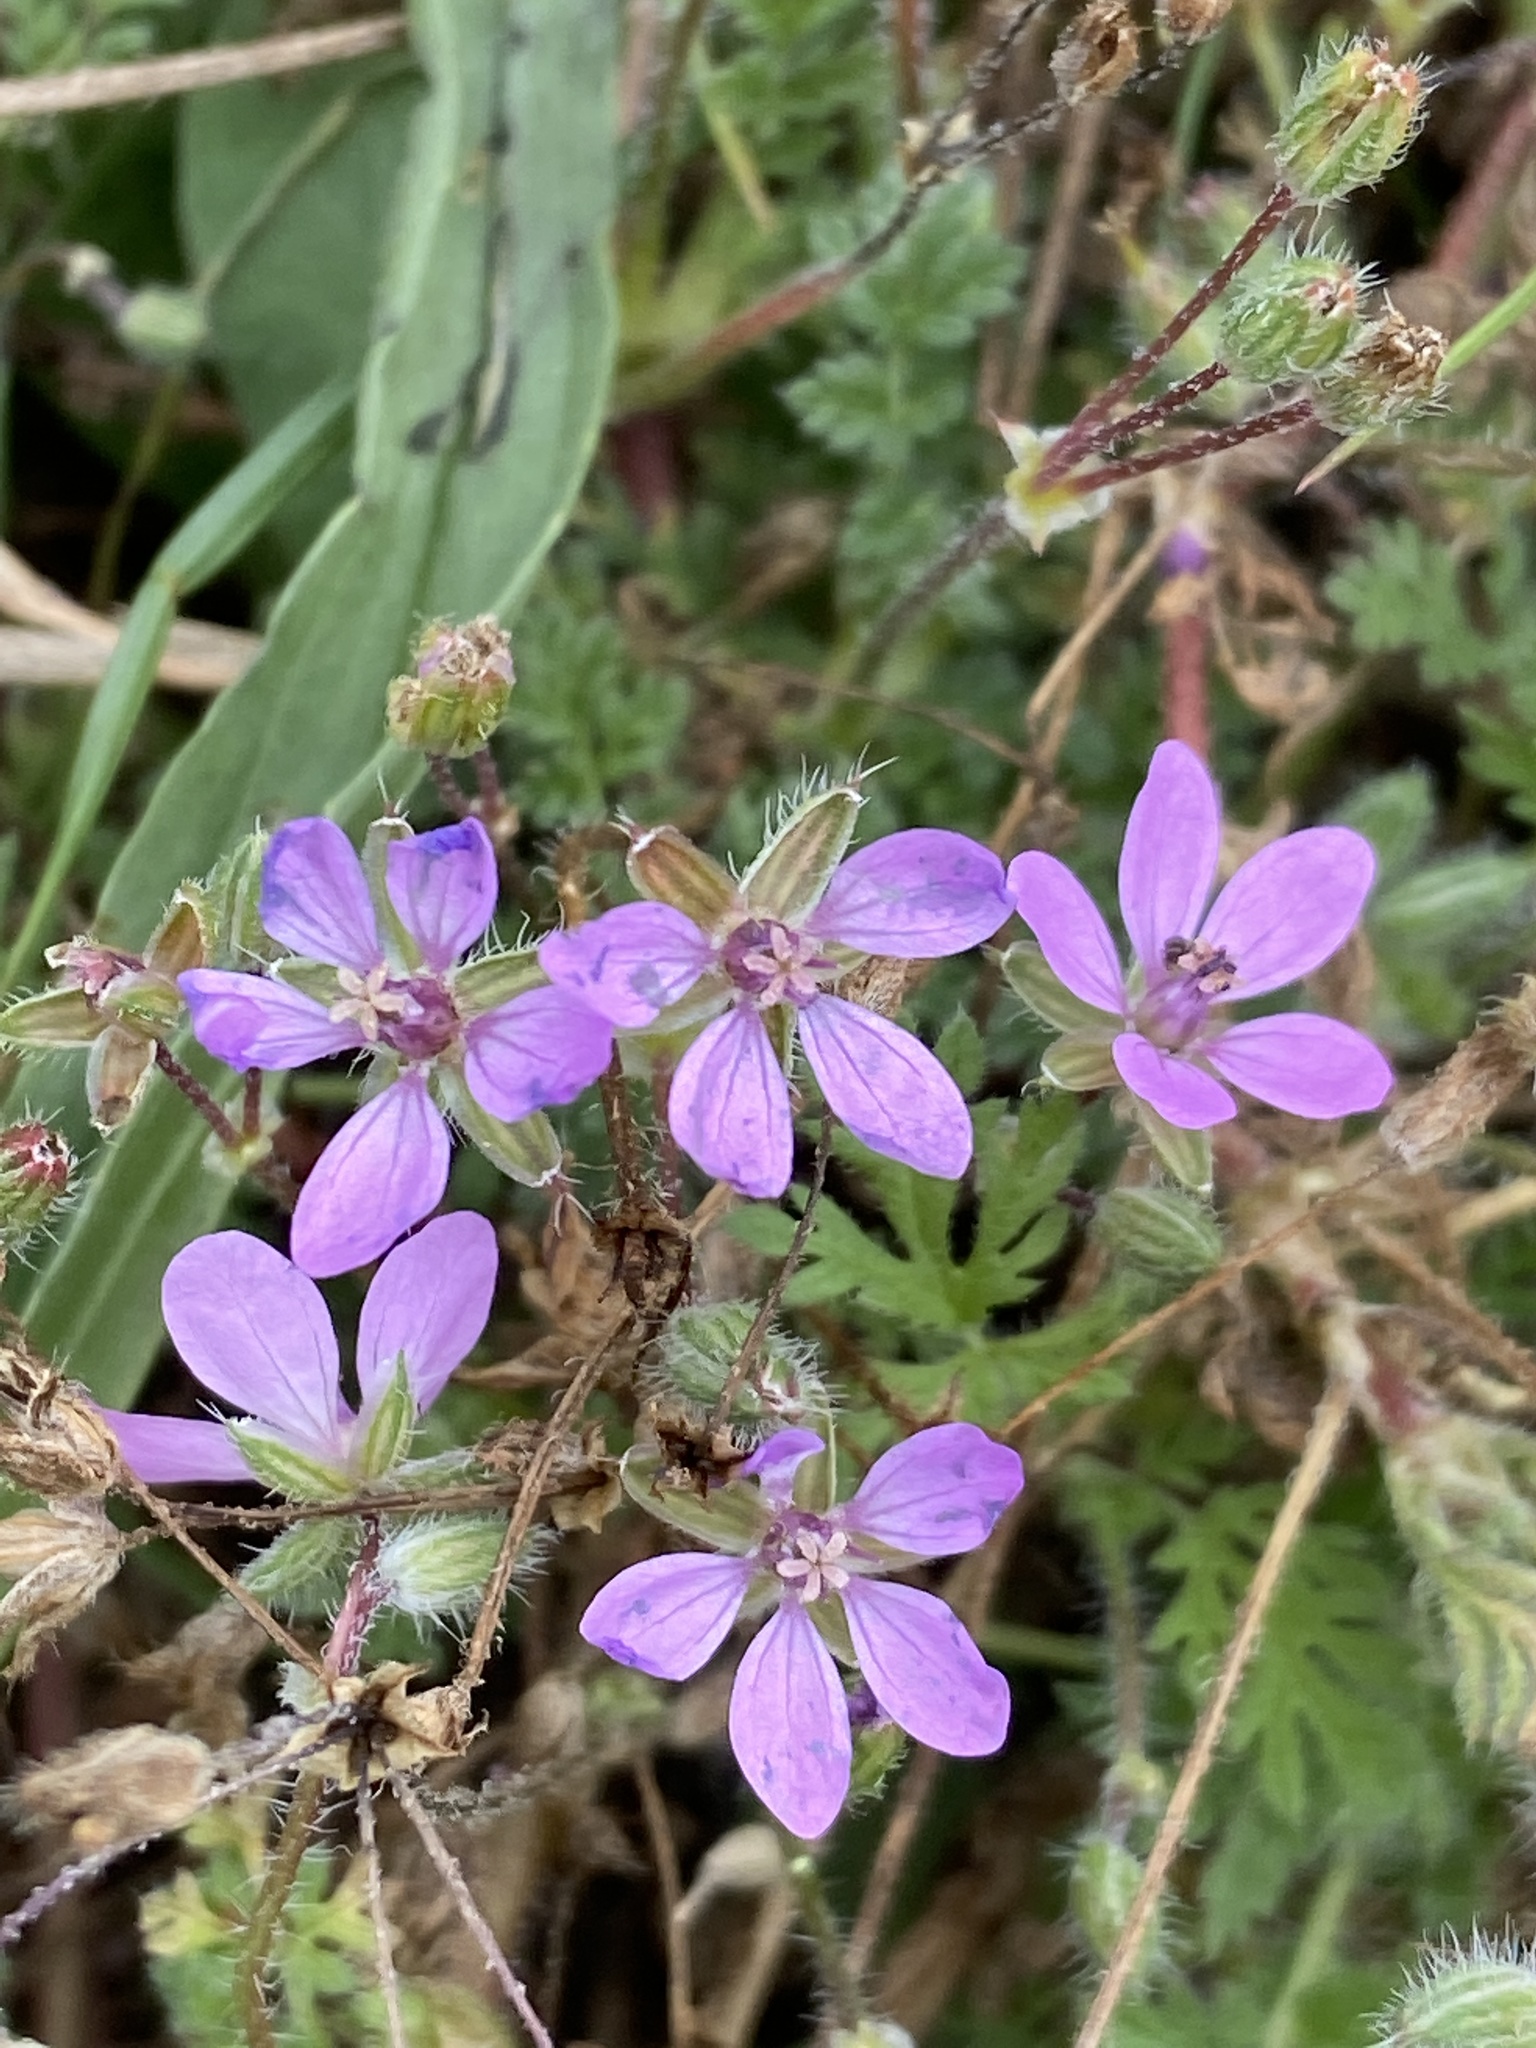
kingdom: Plantae
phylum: Tracheophyta
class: Magnoliopsida
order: Geraniales
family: Geraniaceae
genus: Erodium
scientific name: Erodium cicutarium
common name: Common stork's-bill
